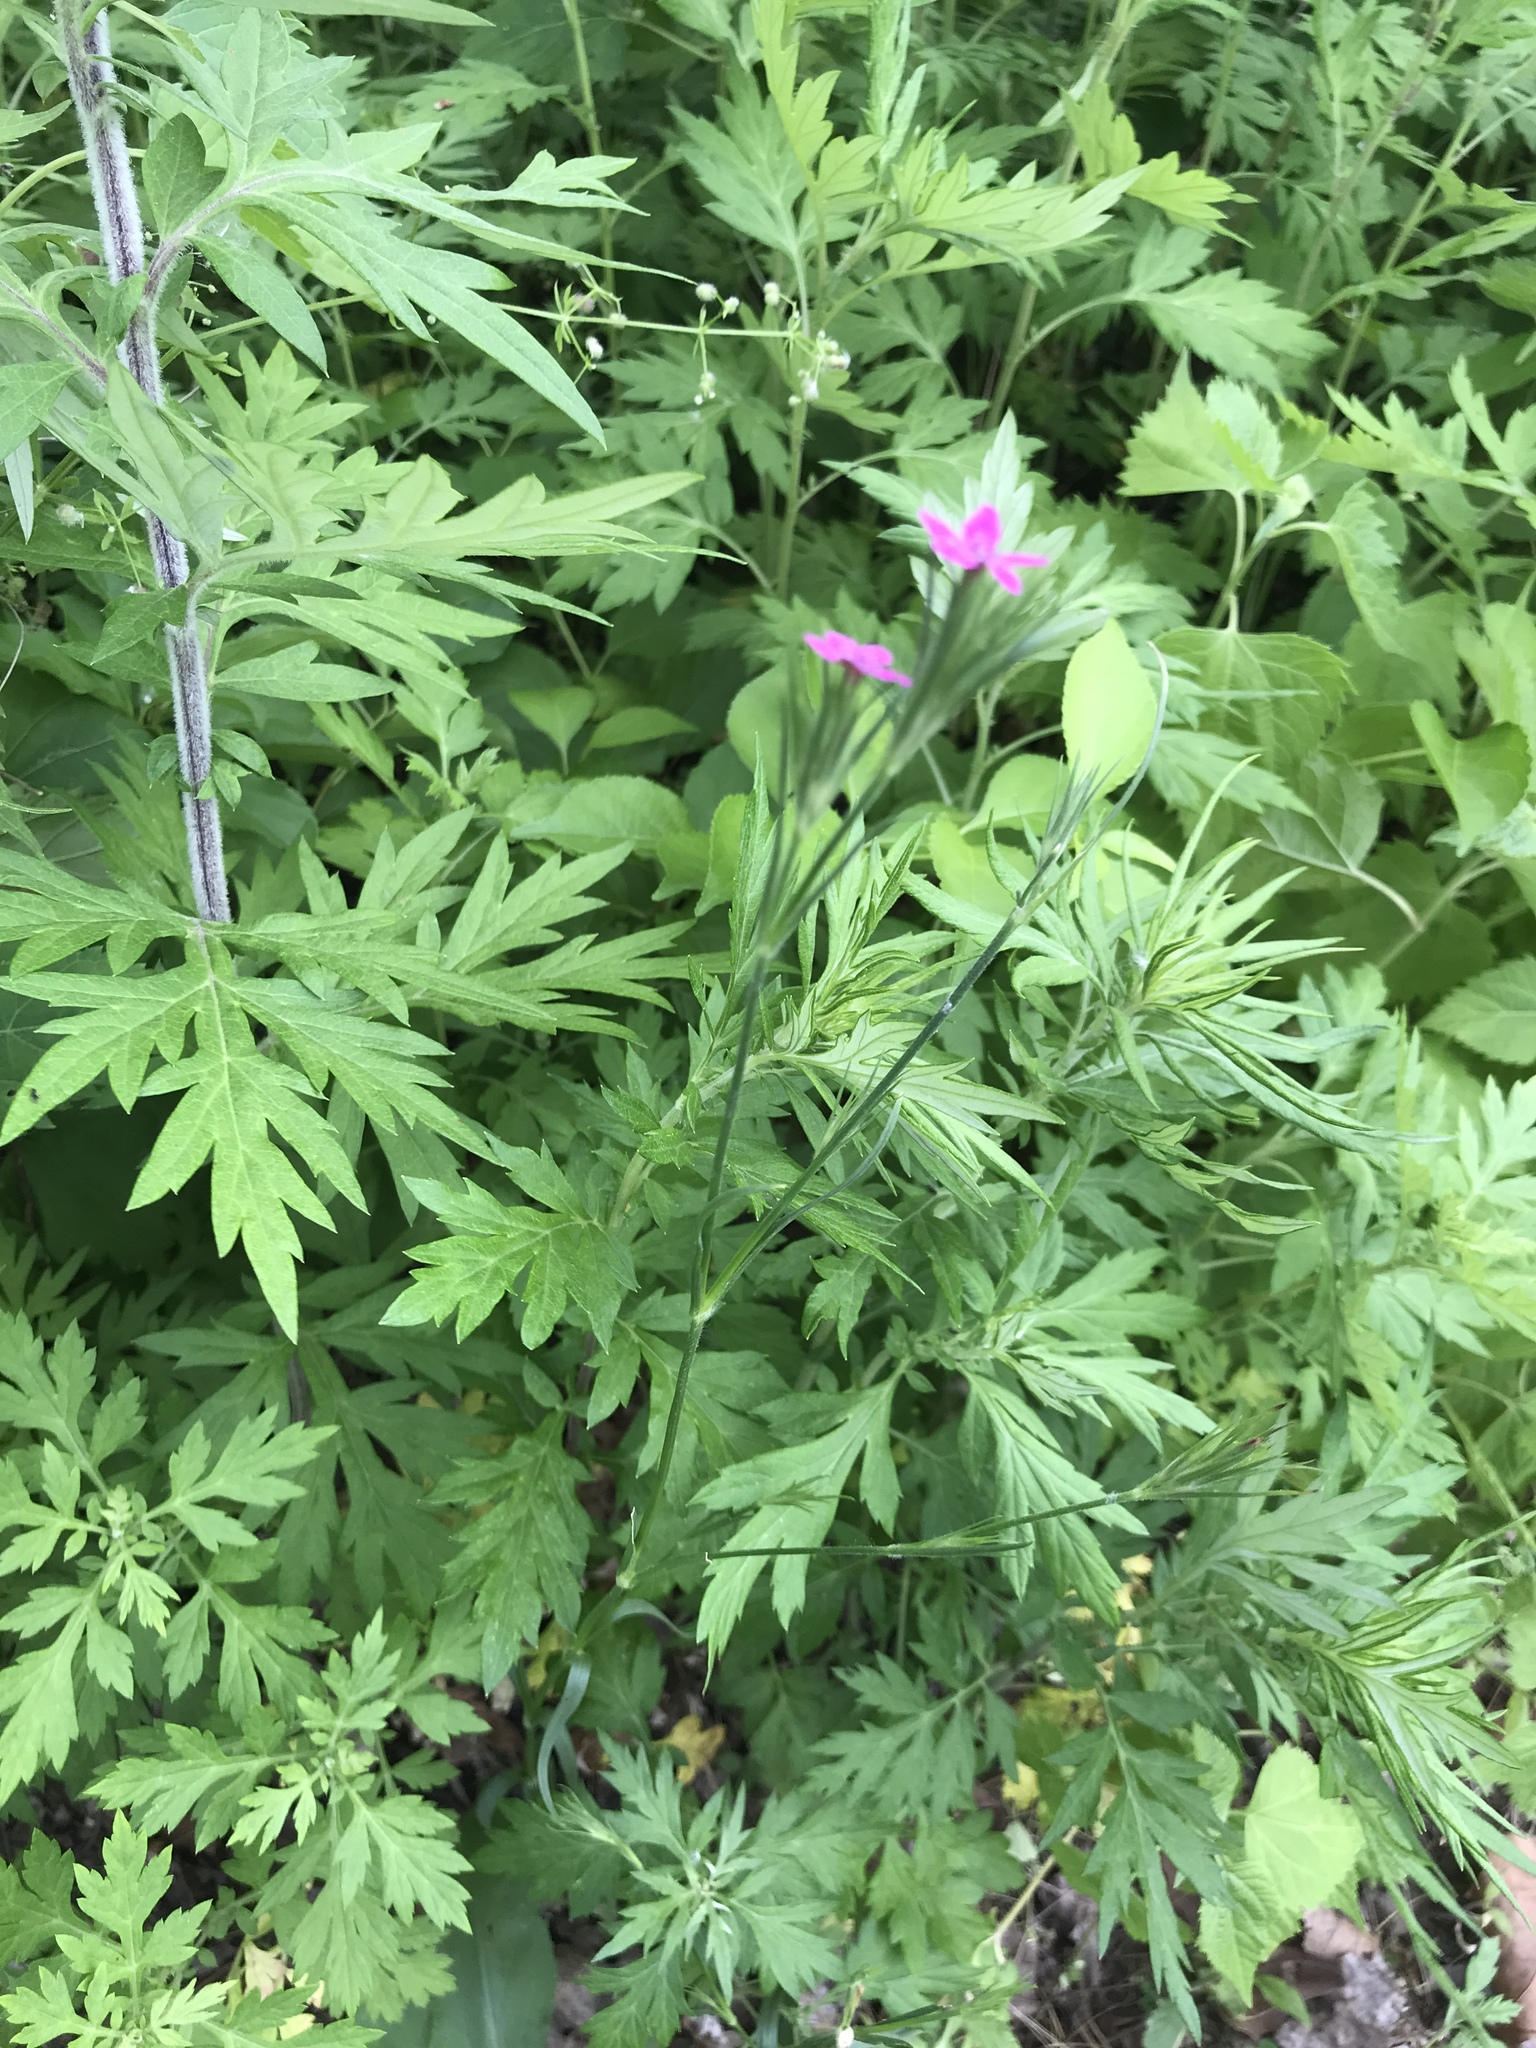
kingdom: Plantae
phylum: Tracheophyta
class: Magnoliopsida
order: Caryophyllales
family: Caryophyllaceae
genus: Dianthus
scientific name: Dianthus armeria
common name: Deptford pink
